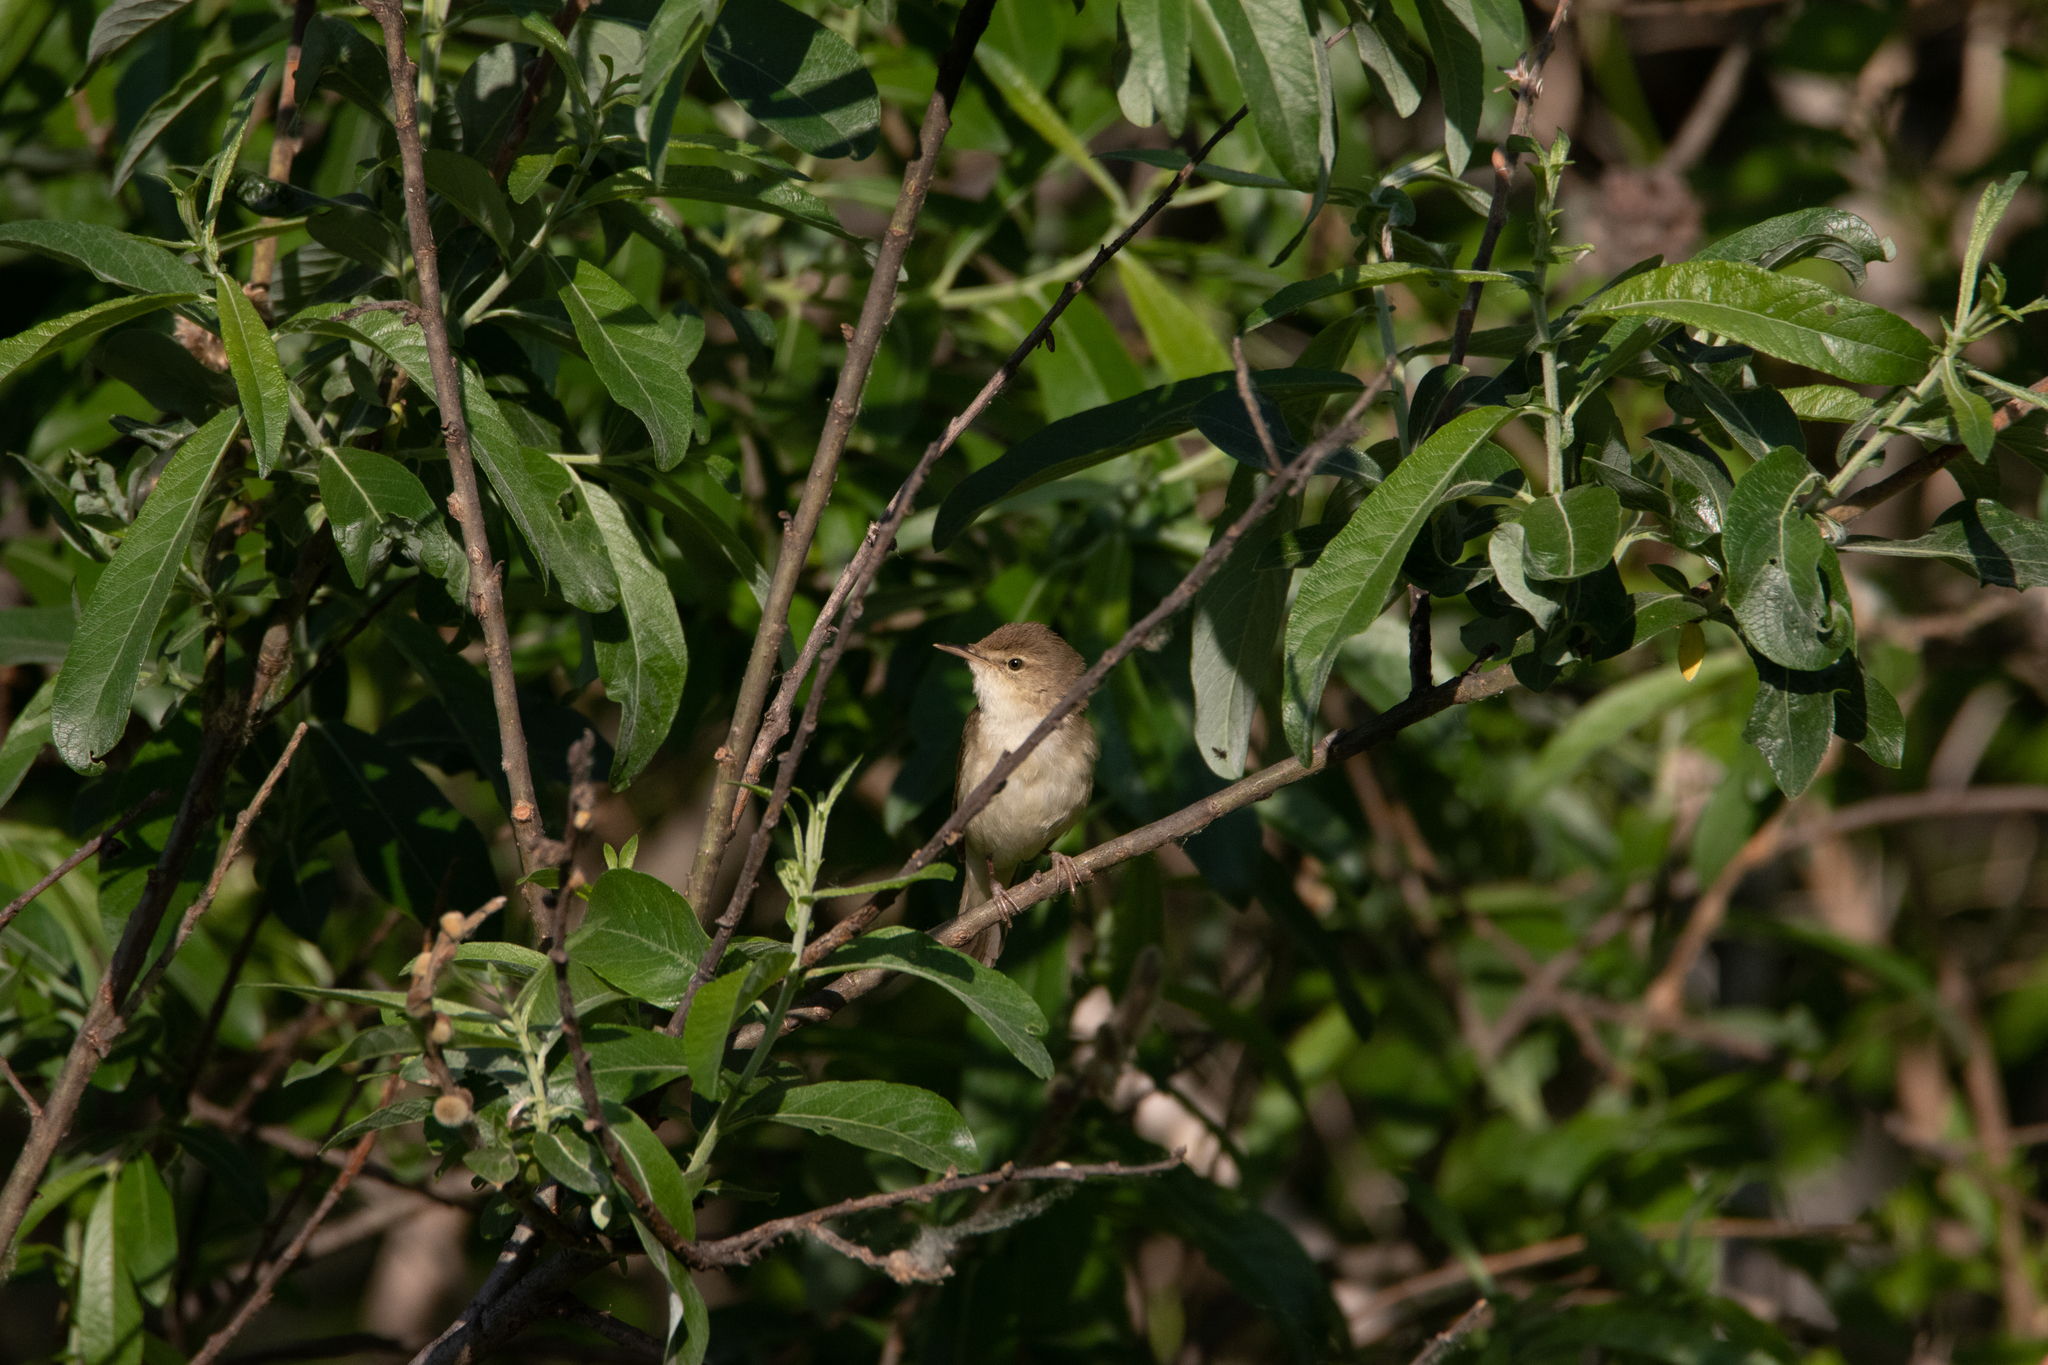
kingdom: Animalia
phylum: Chordata
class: Aves
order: Passeriformes
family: Acrocephalidae
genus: Acrocephalus
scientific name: Acrocephalus dumetorum
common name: Blyth's reed warbler
